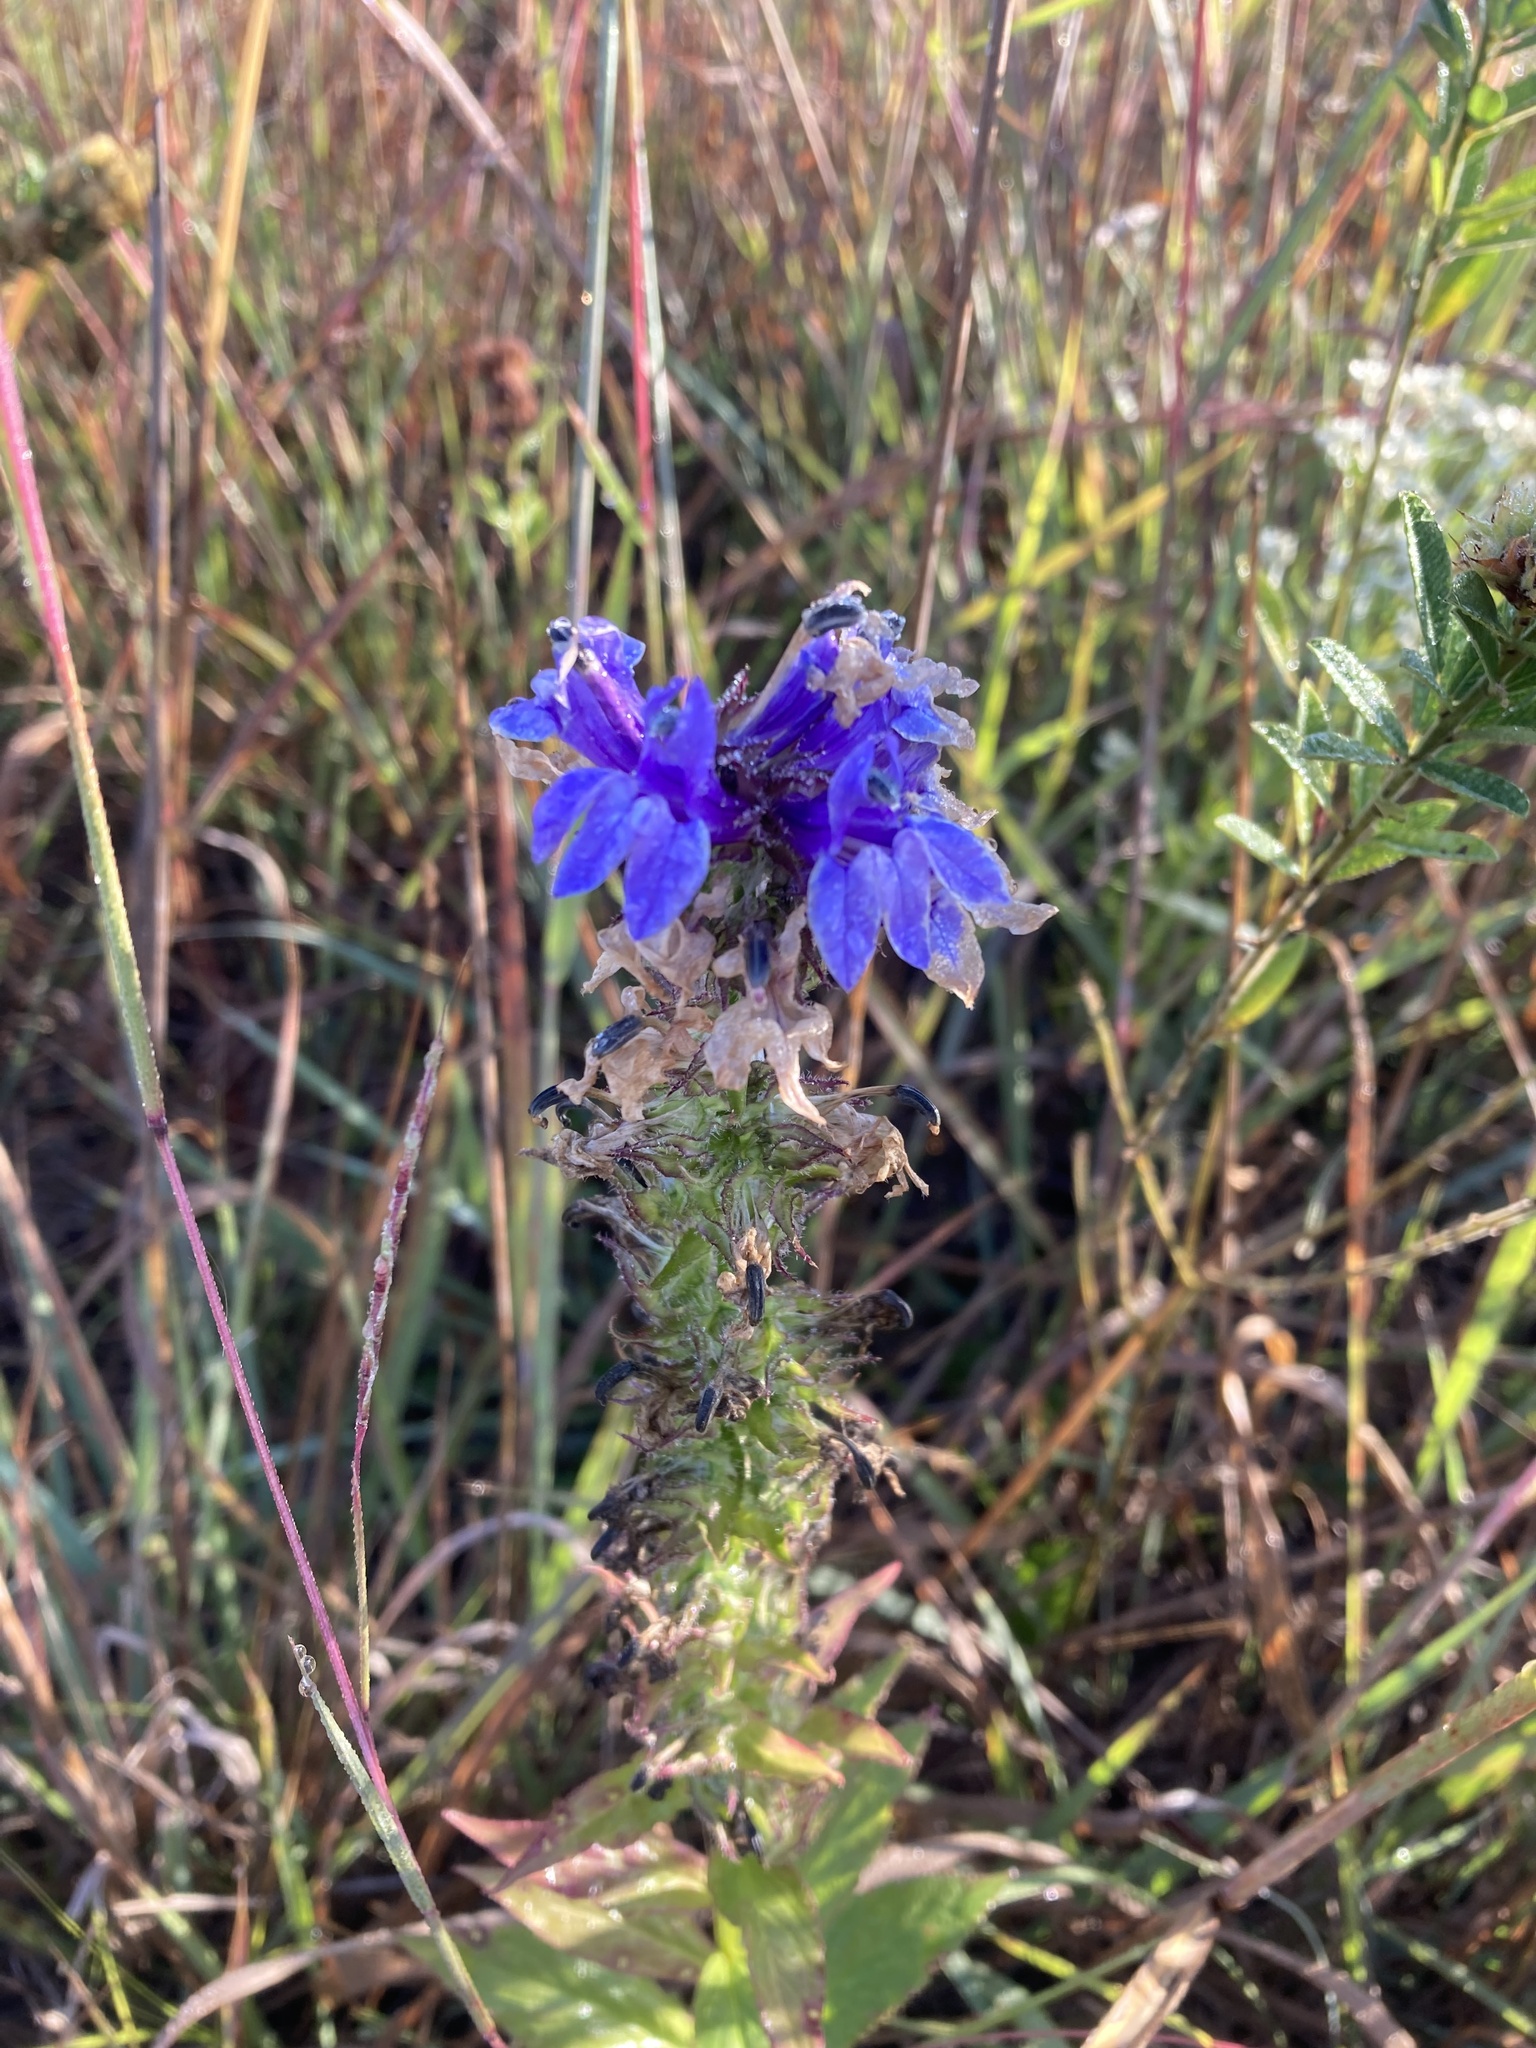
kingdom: Plantae
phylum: Tracheophyta
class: Magnoliopsida
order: Asterales
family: Campanulaceae
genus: Lobelia
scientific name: Lobelia siphilitica
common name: Great lobelia
